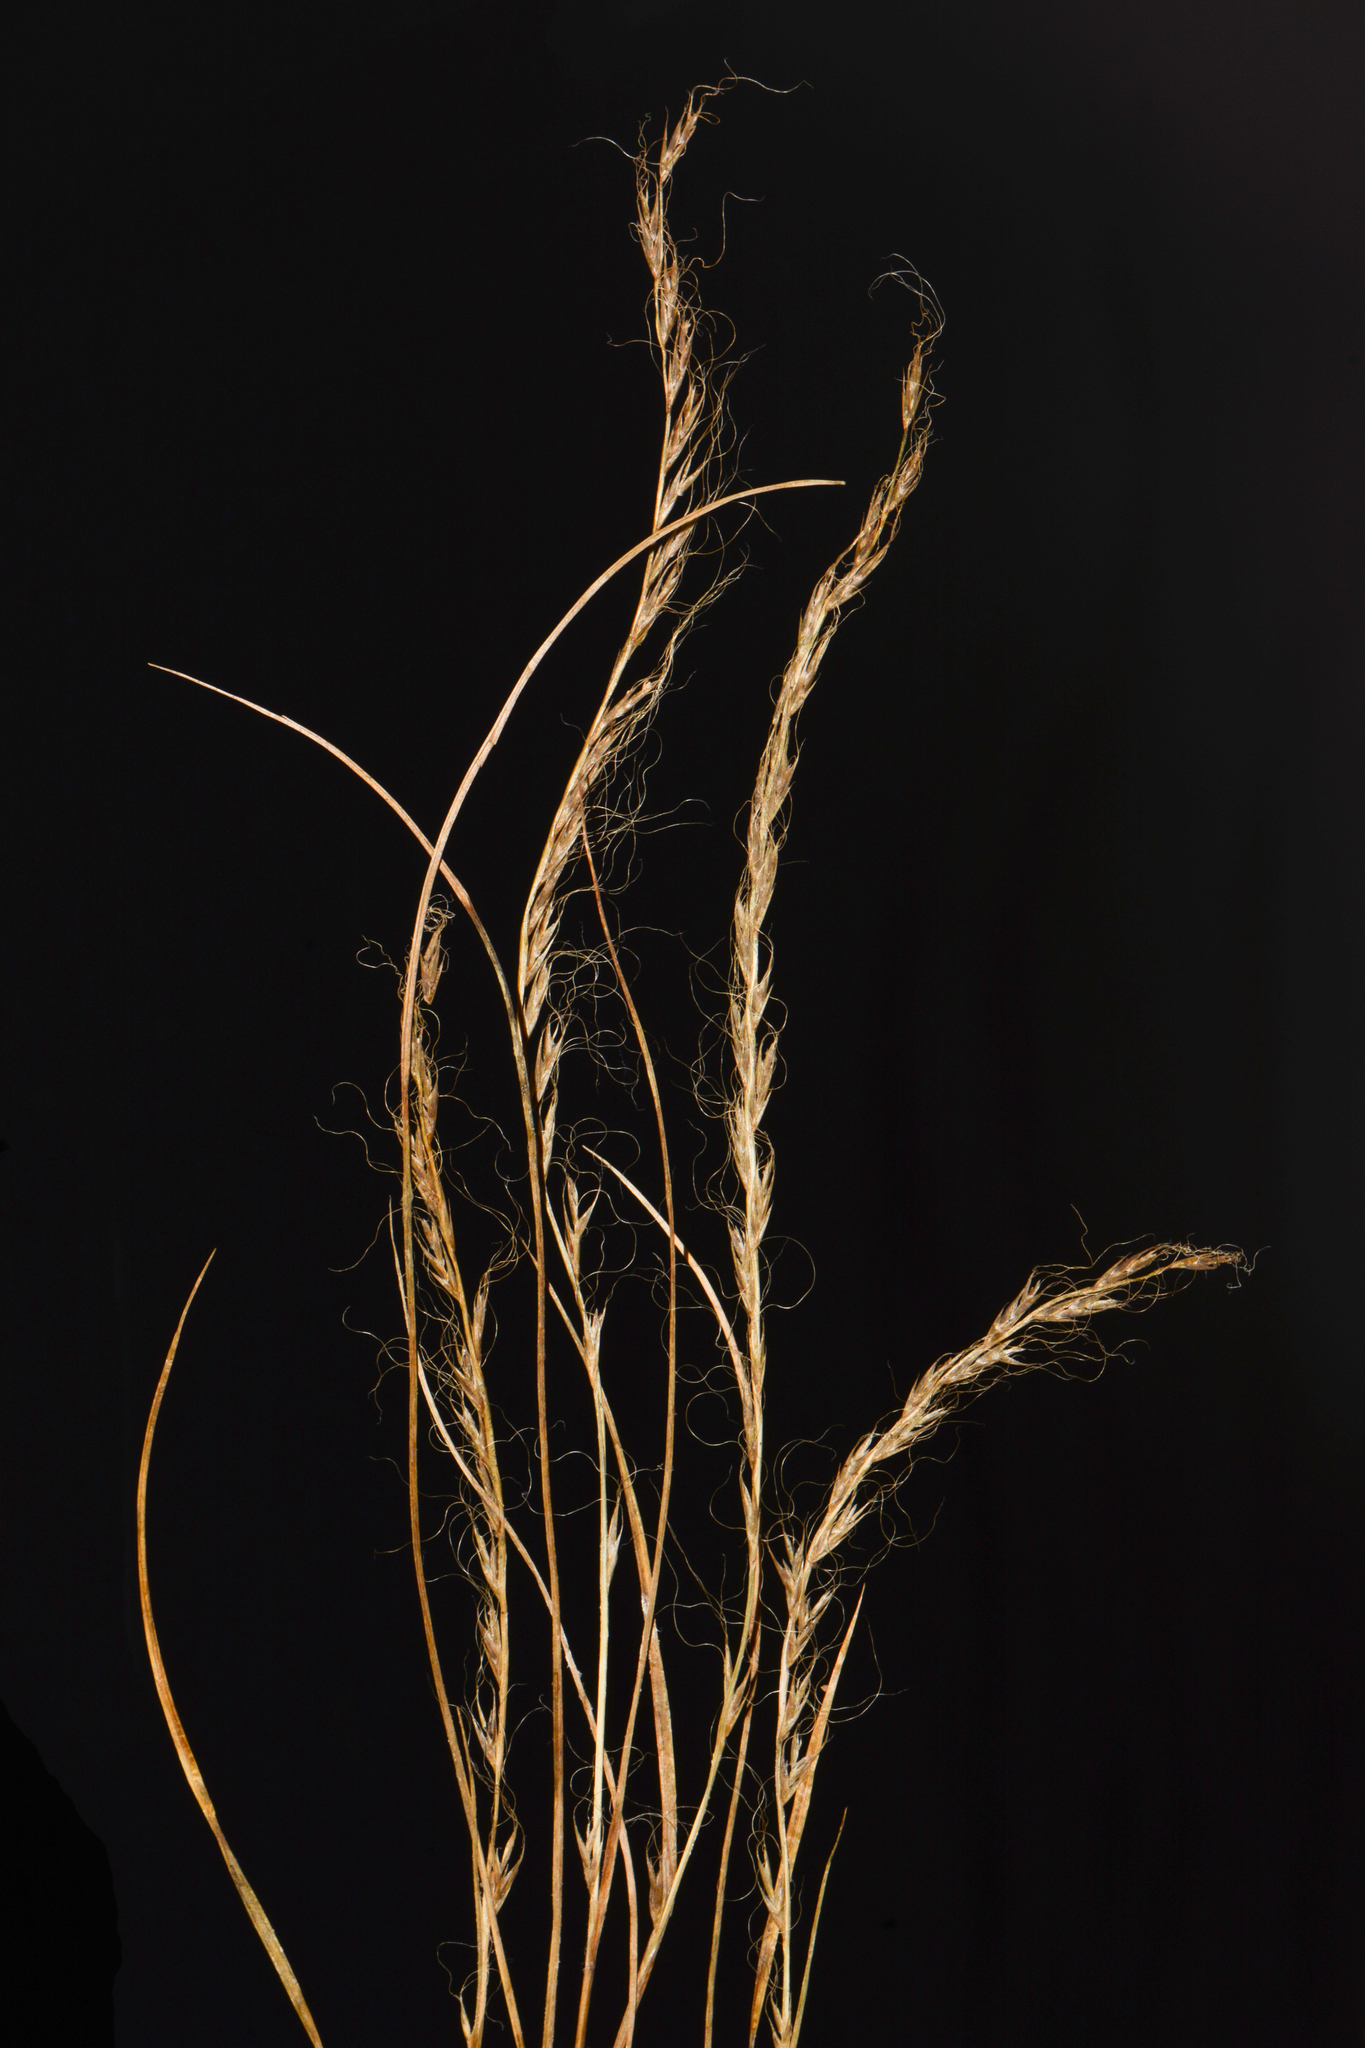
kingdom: Plantae
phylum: Tracheophyta
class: Liliopsida
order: Poales
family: Poaceae
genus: Tripogon
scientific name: Tripogon capillatus
